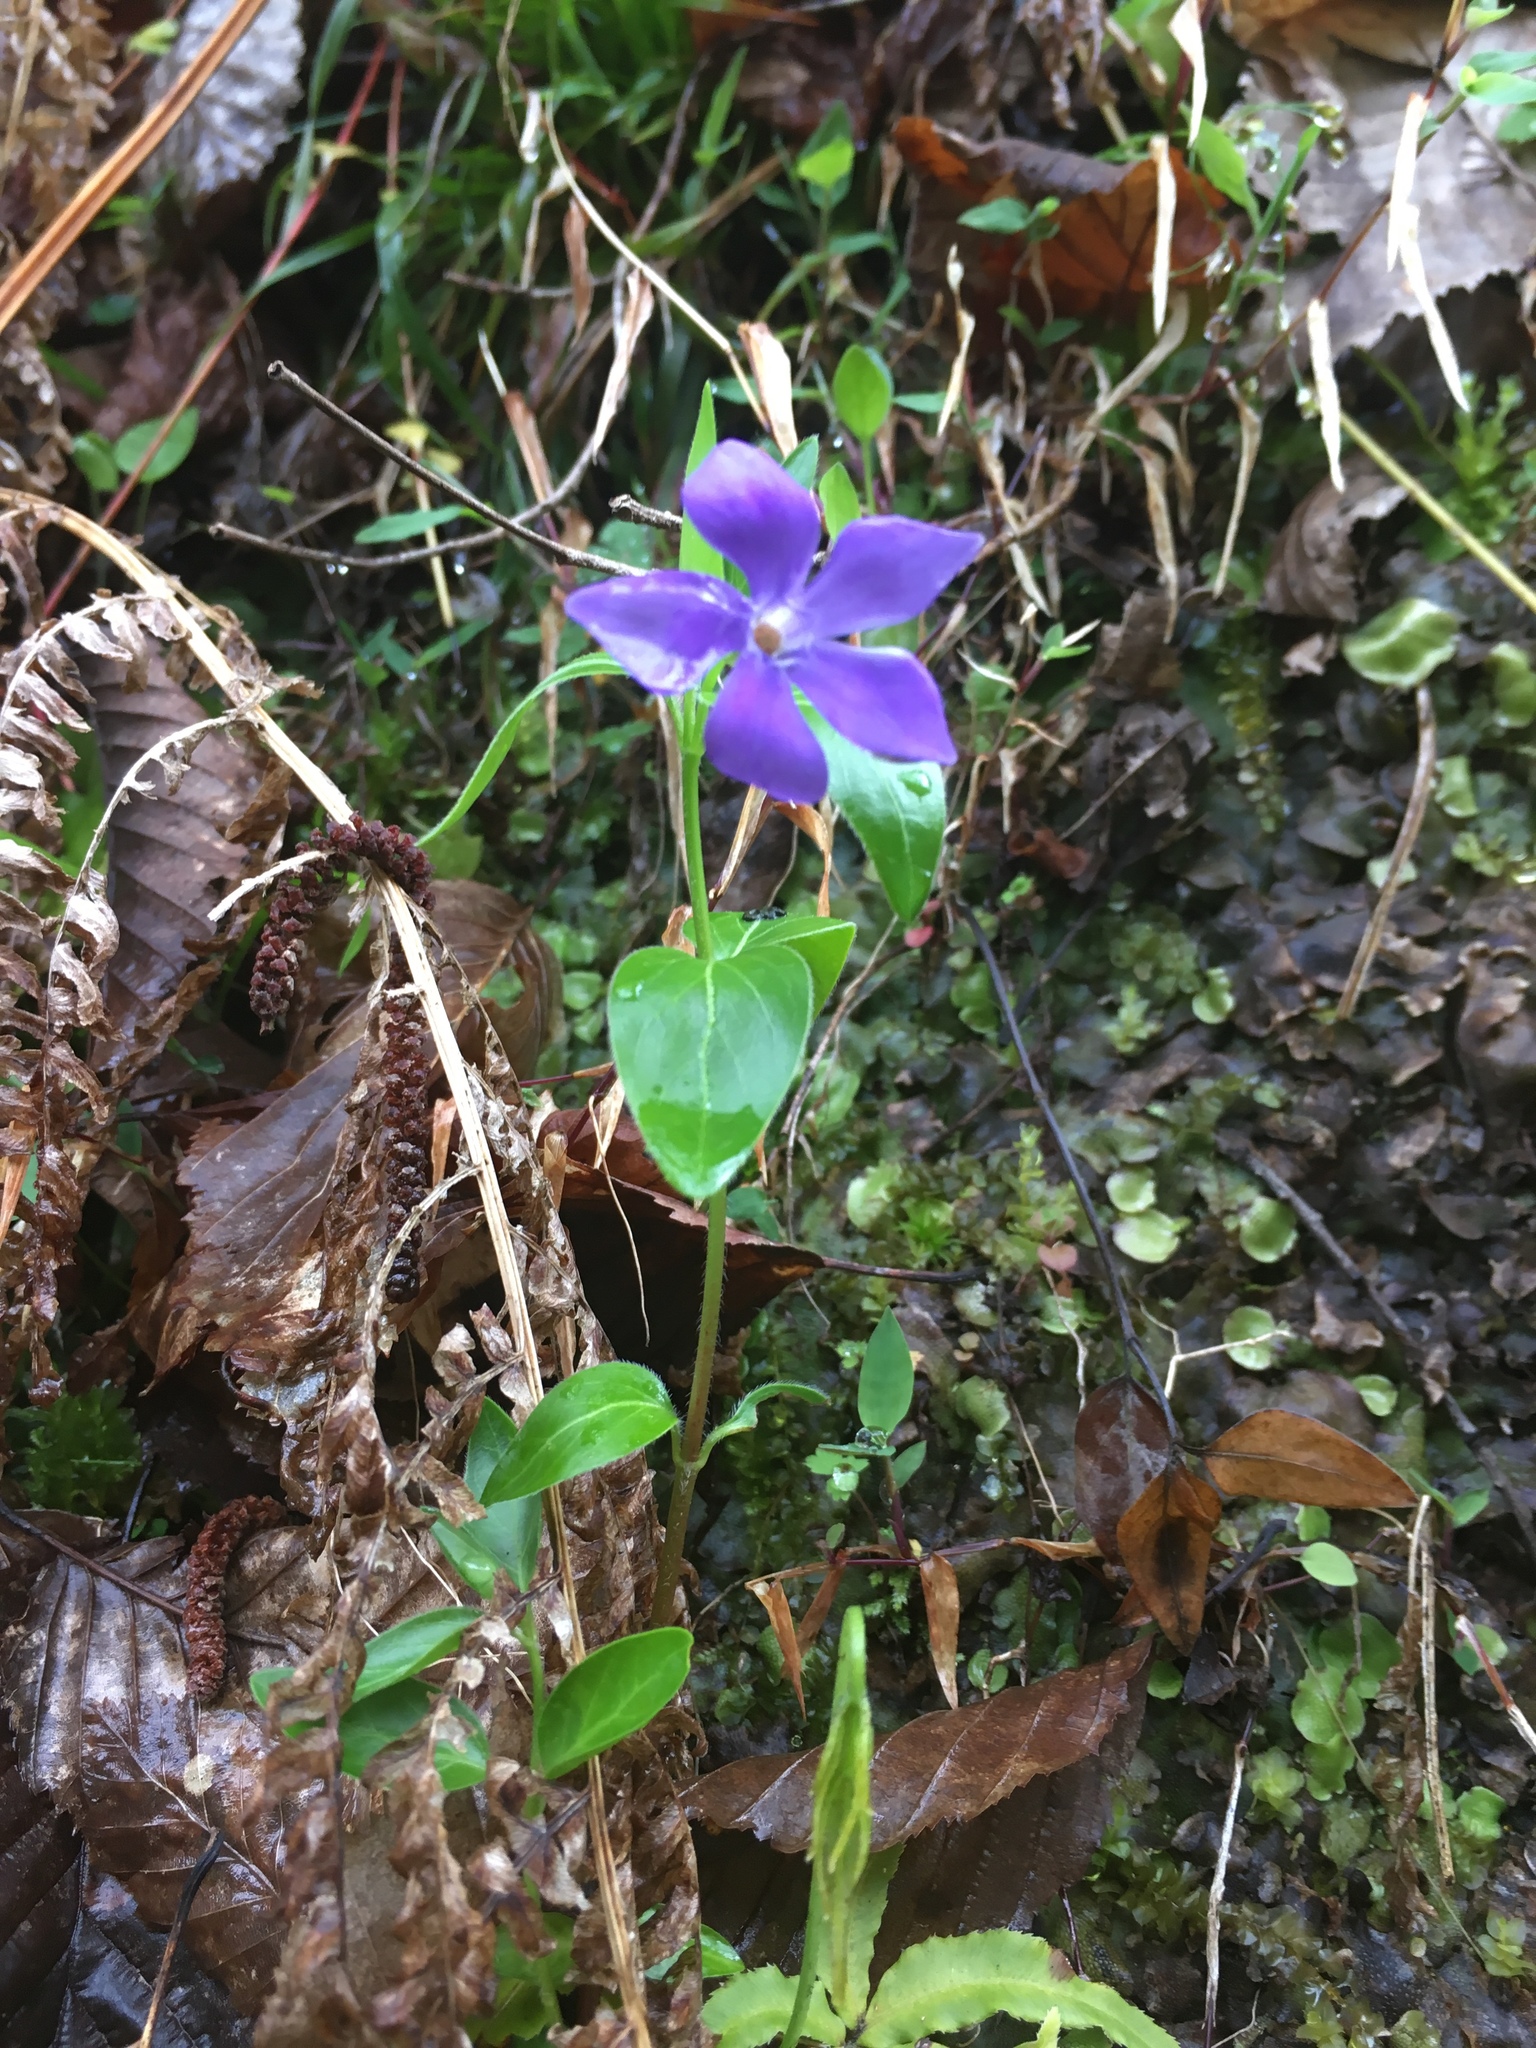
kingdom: Plantae
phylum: Tracheophyta
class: Magnoliopsida
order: Gentianales
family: Apocynaceae
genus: Vinca
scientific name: Vinca major
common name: Greater periwinkle
